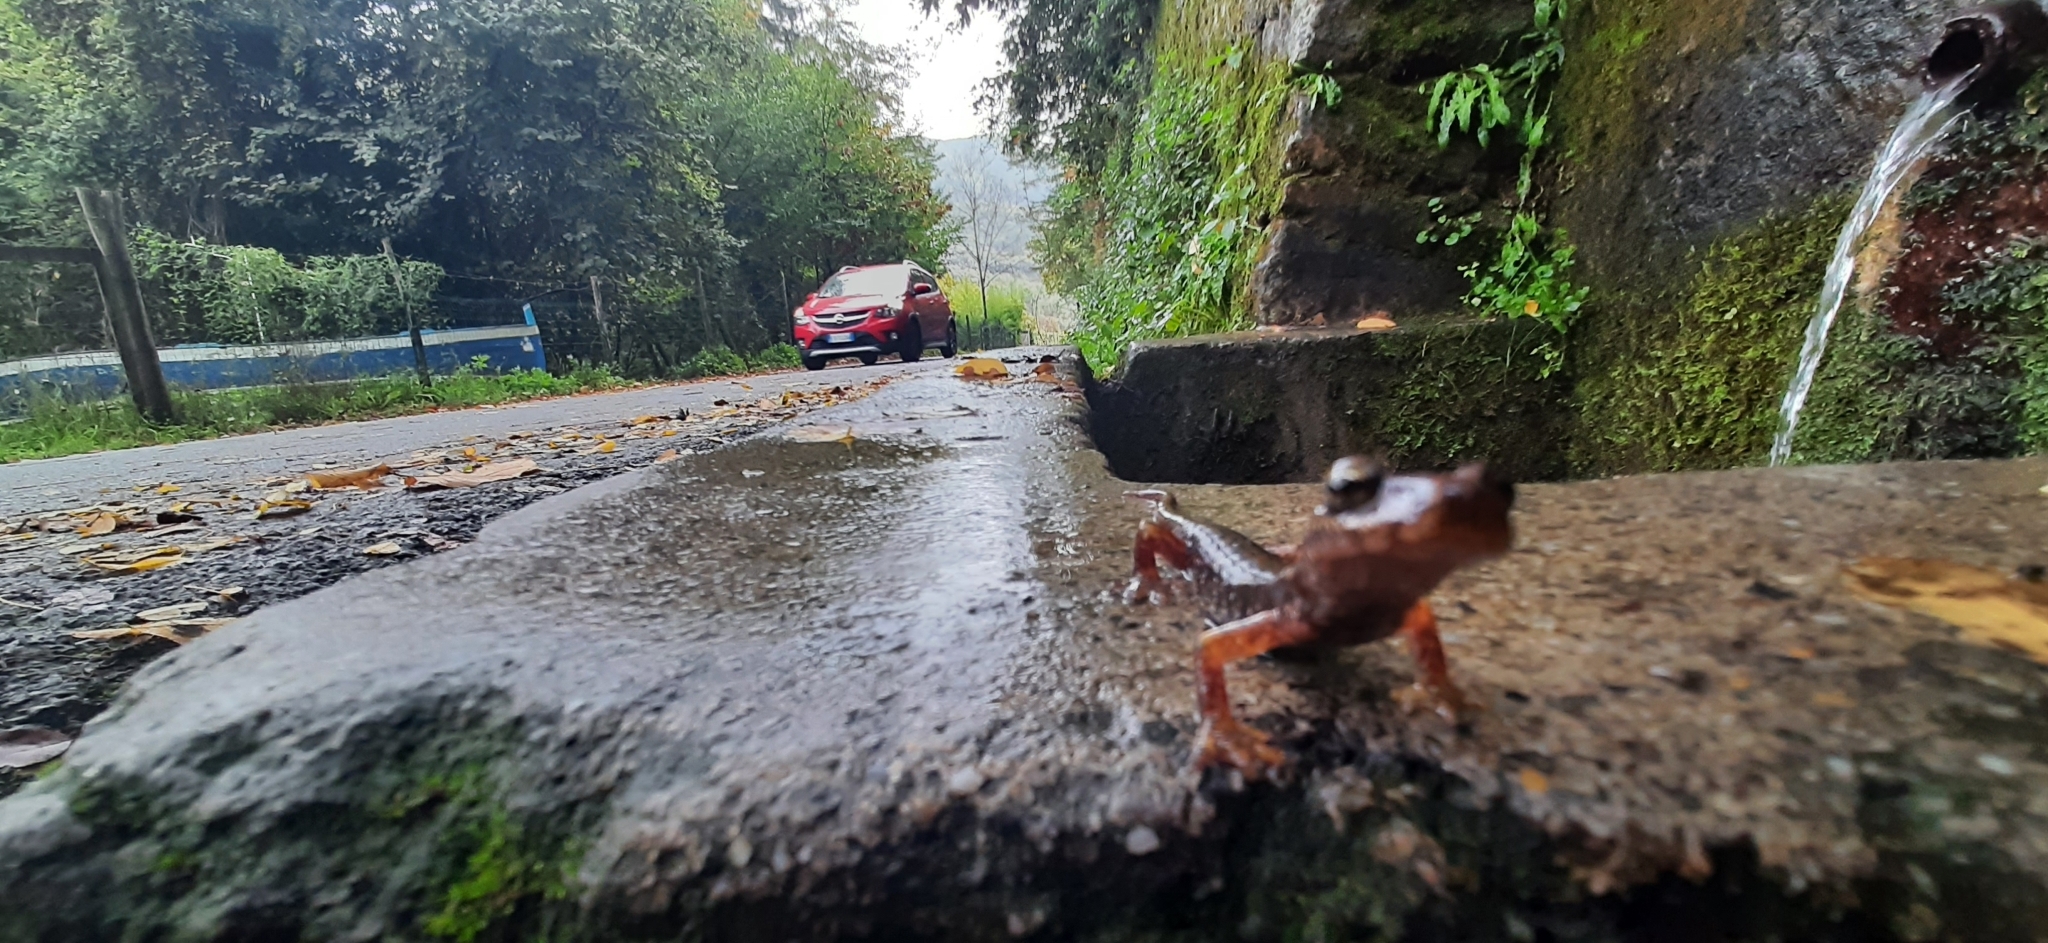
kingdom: Animalia
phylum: Chordata
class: Amphibia
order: Caudata
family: Plethodontidae
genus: Speleomantes
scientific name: Speleomantes strinatii
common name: French cave salamander
